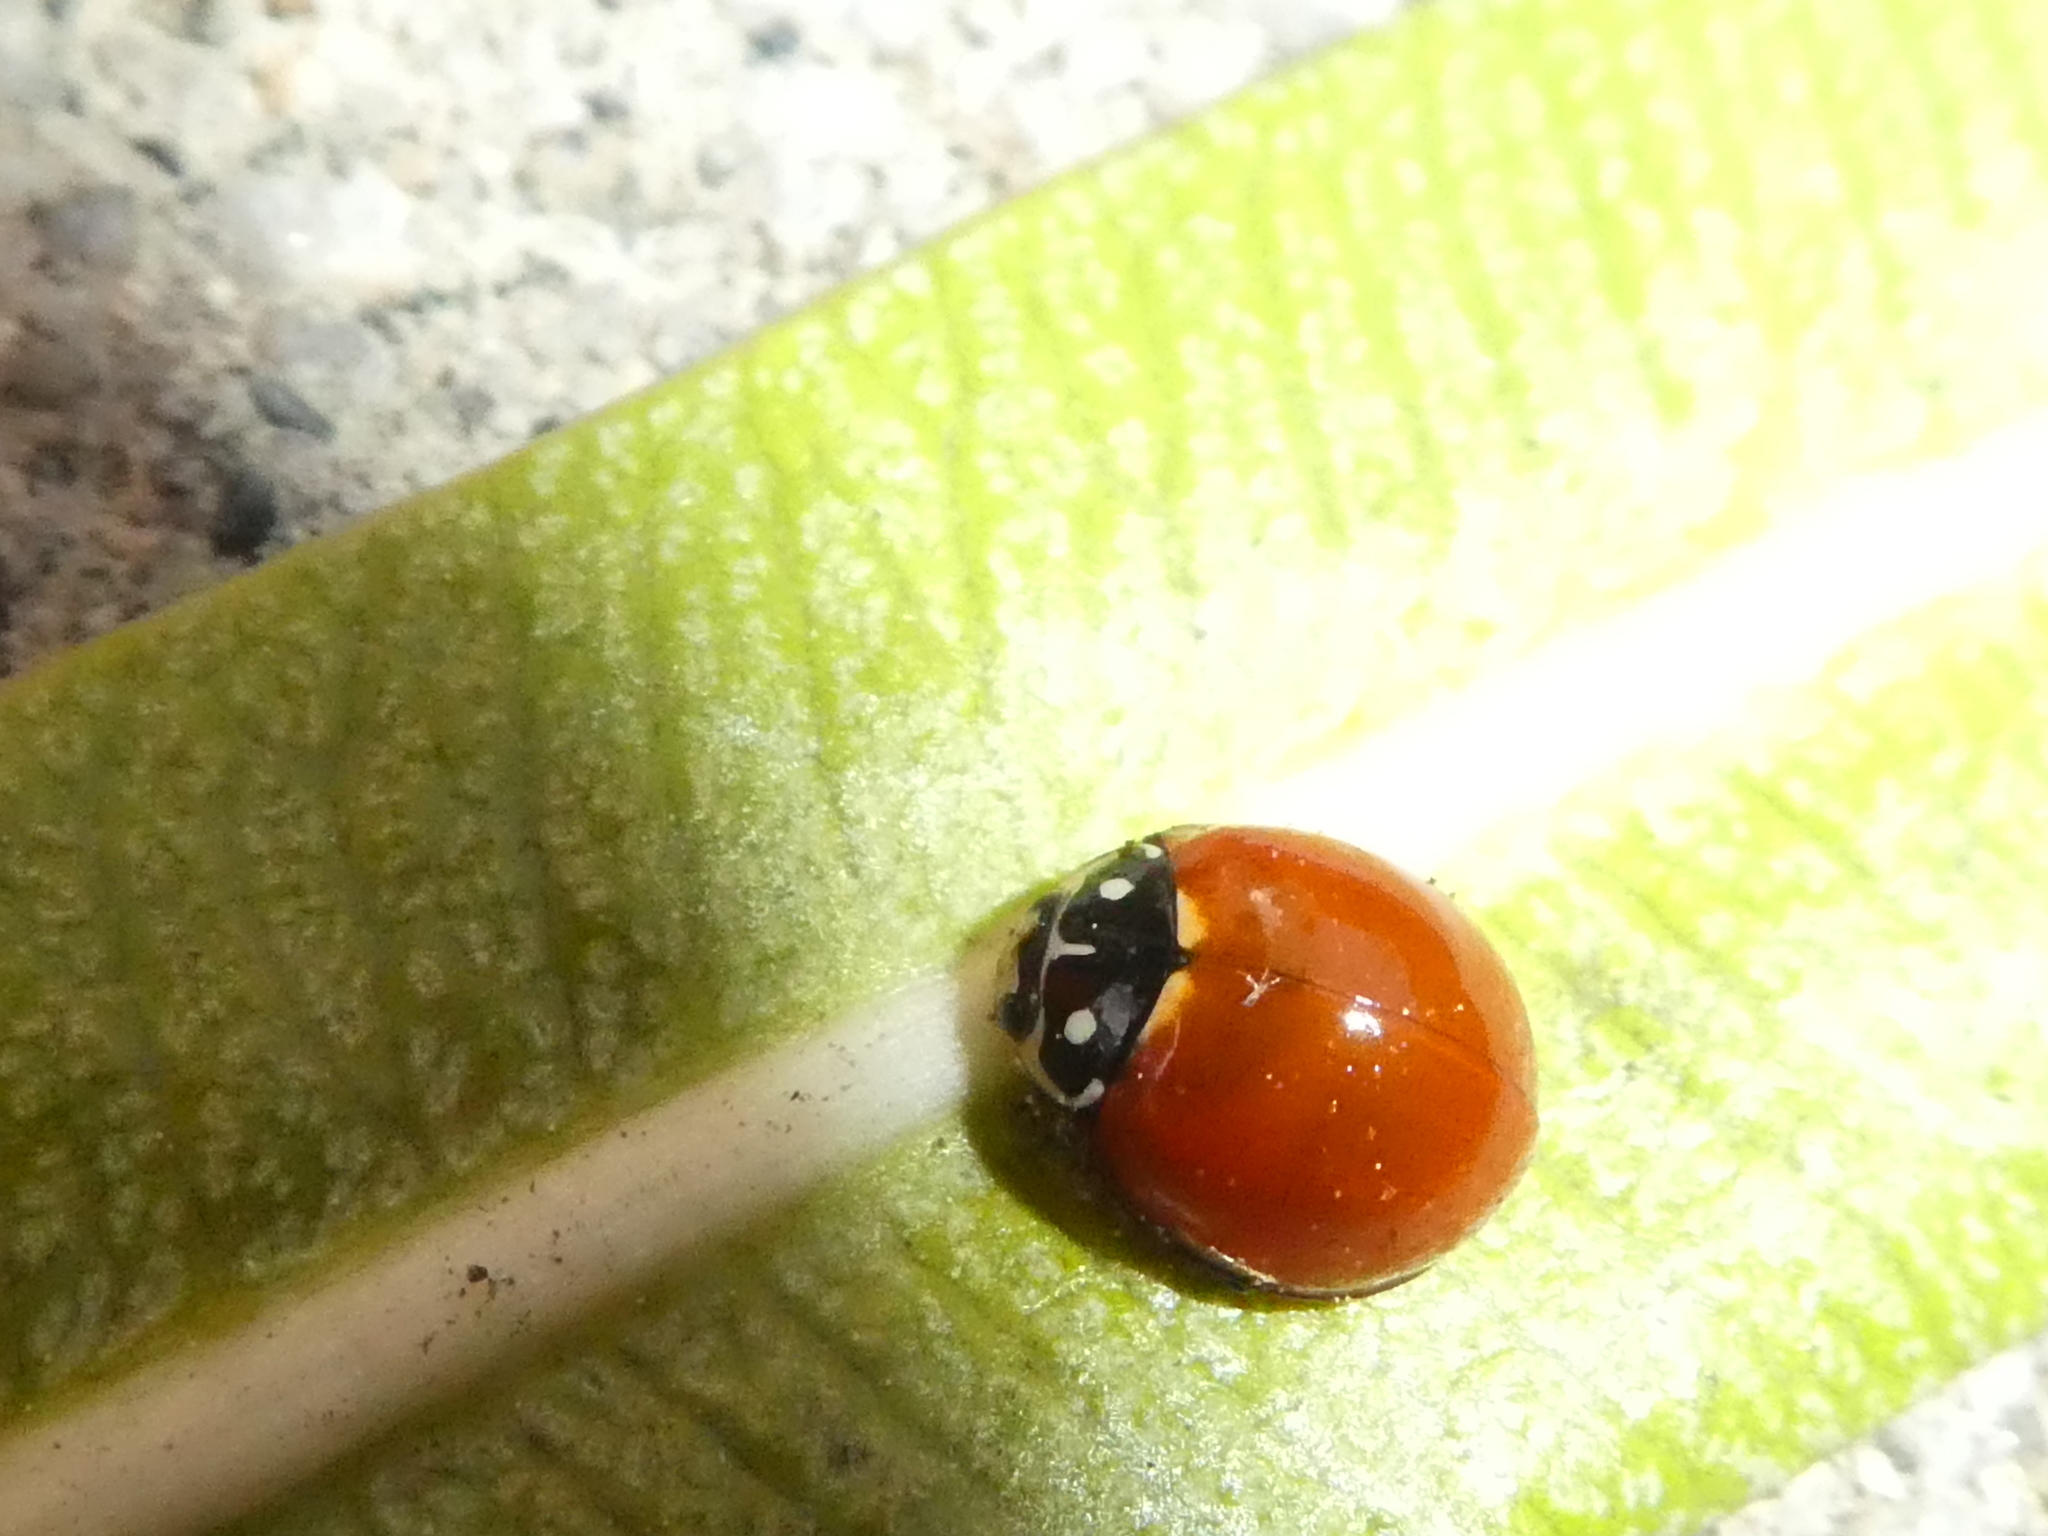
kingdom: Animalia
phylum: Arthropoda
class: Insecta
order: Coleoptera
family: Coccinellidae
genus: Cycloneda
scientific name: Cycloneda sanguinea
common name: Ladybird beetle
